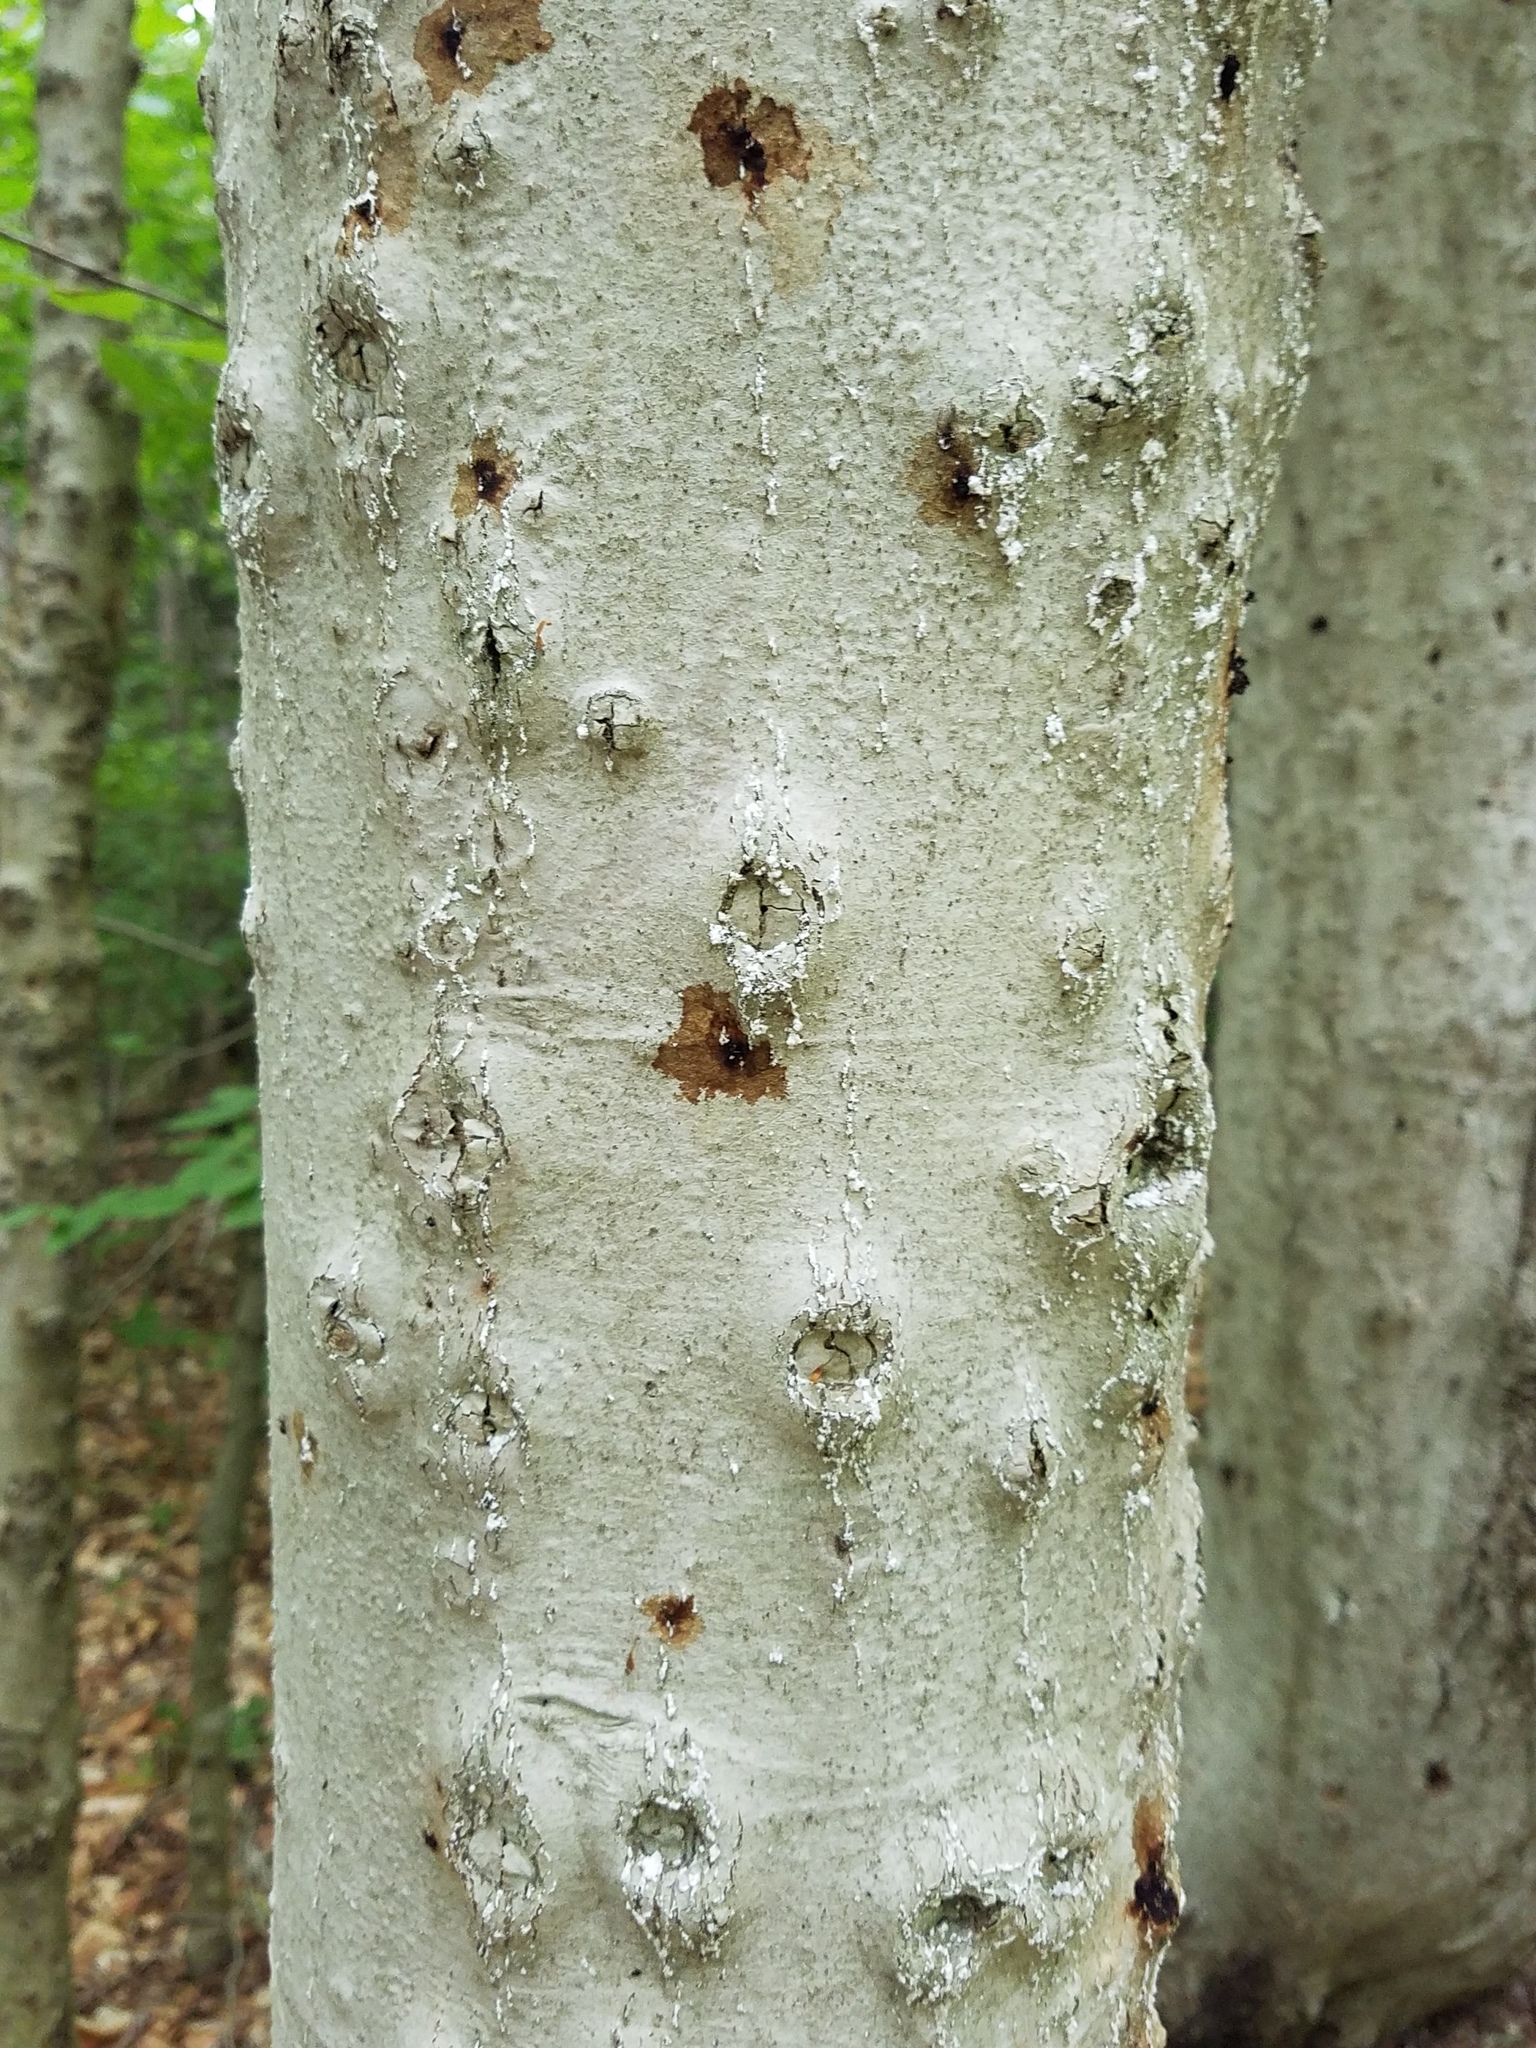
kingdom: Plantae
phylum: Tracheophyta
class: Magnoliopsida
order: Fagales
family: Fagaceae
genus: Fagus
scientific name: Fagus grandifolia
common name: American beech
